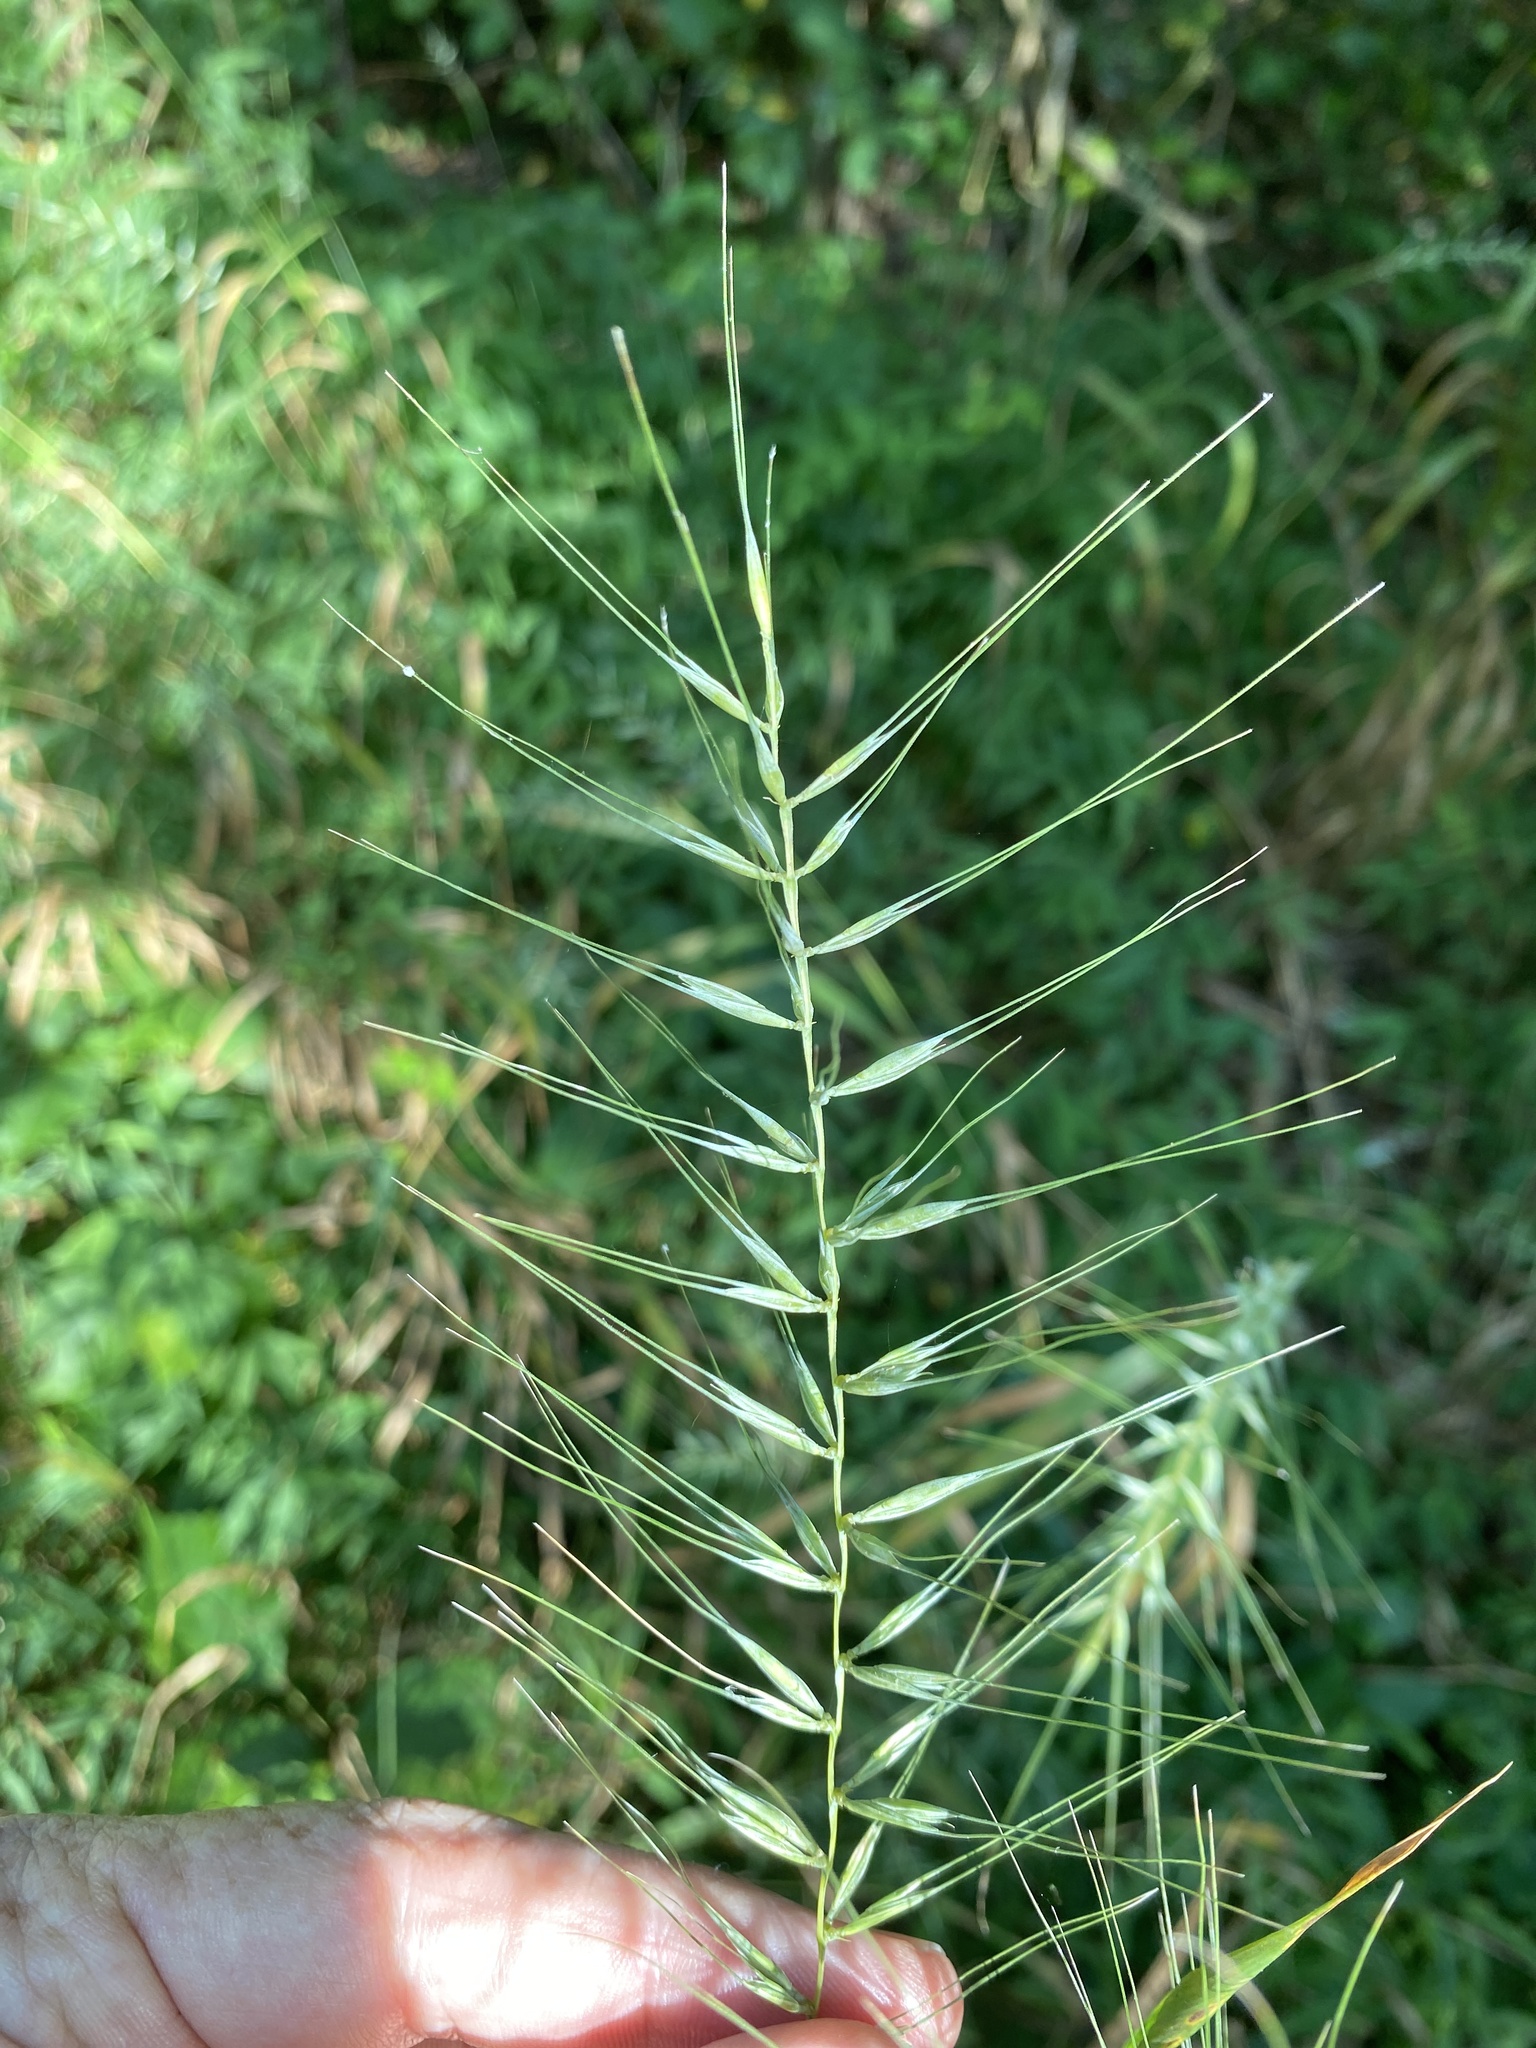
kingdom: Plantae
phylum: Tracheophyta
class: Liliopsida
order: Poales
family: Poaceae
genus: Elymus
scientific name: Elymus hystrix
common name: Bottlebrush grass
